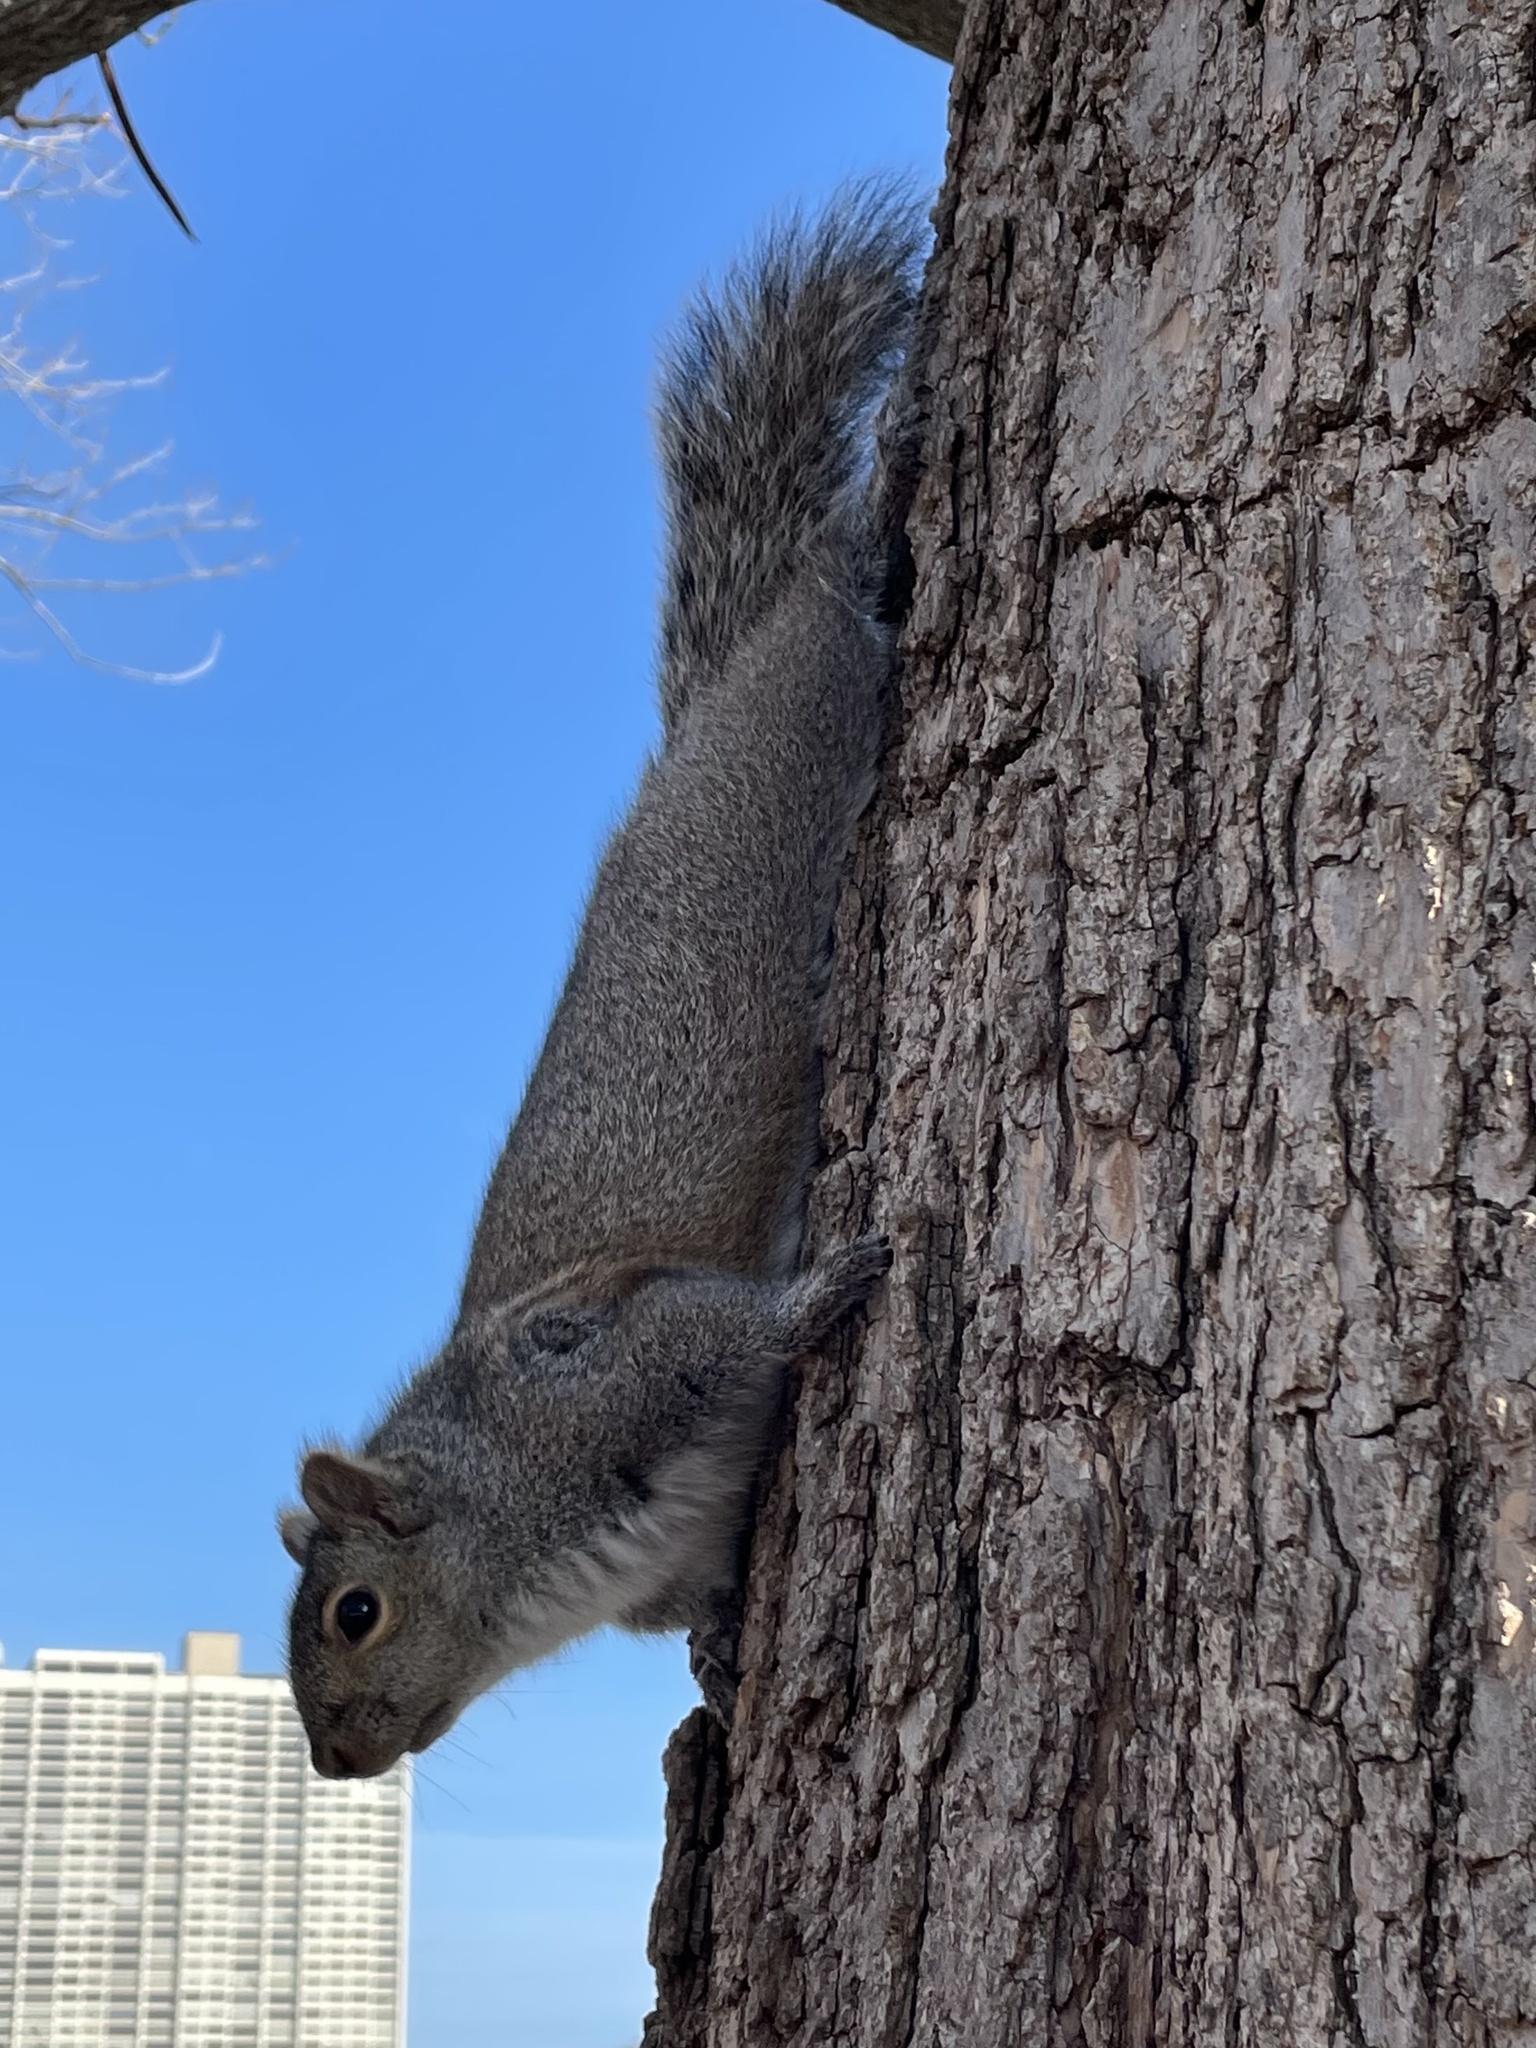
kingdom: Animalia
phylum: Chordata
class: Mammalia
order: Rodentia
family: Sciuridae
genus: Sciurus
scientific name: Sciurus carolinensis
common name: Eastern gray squirrel
